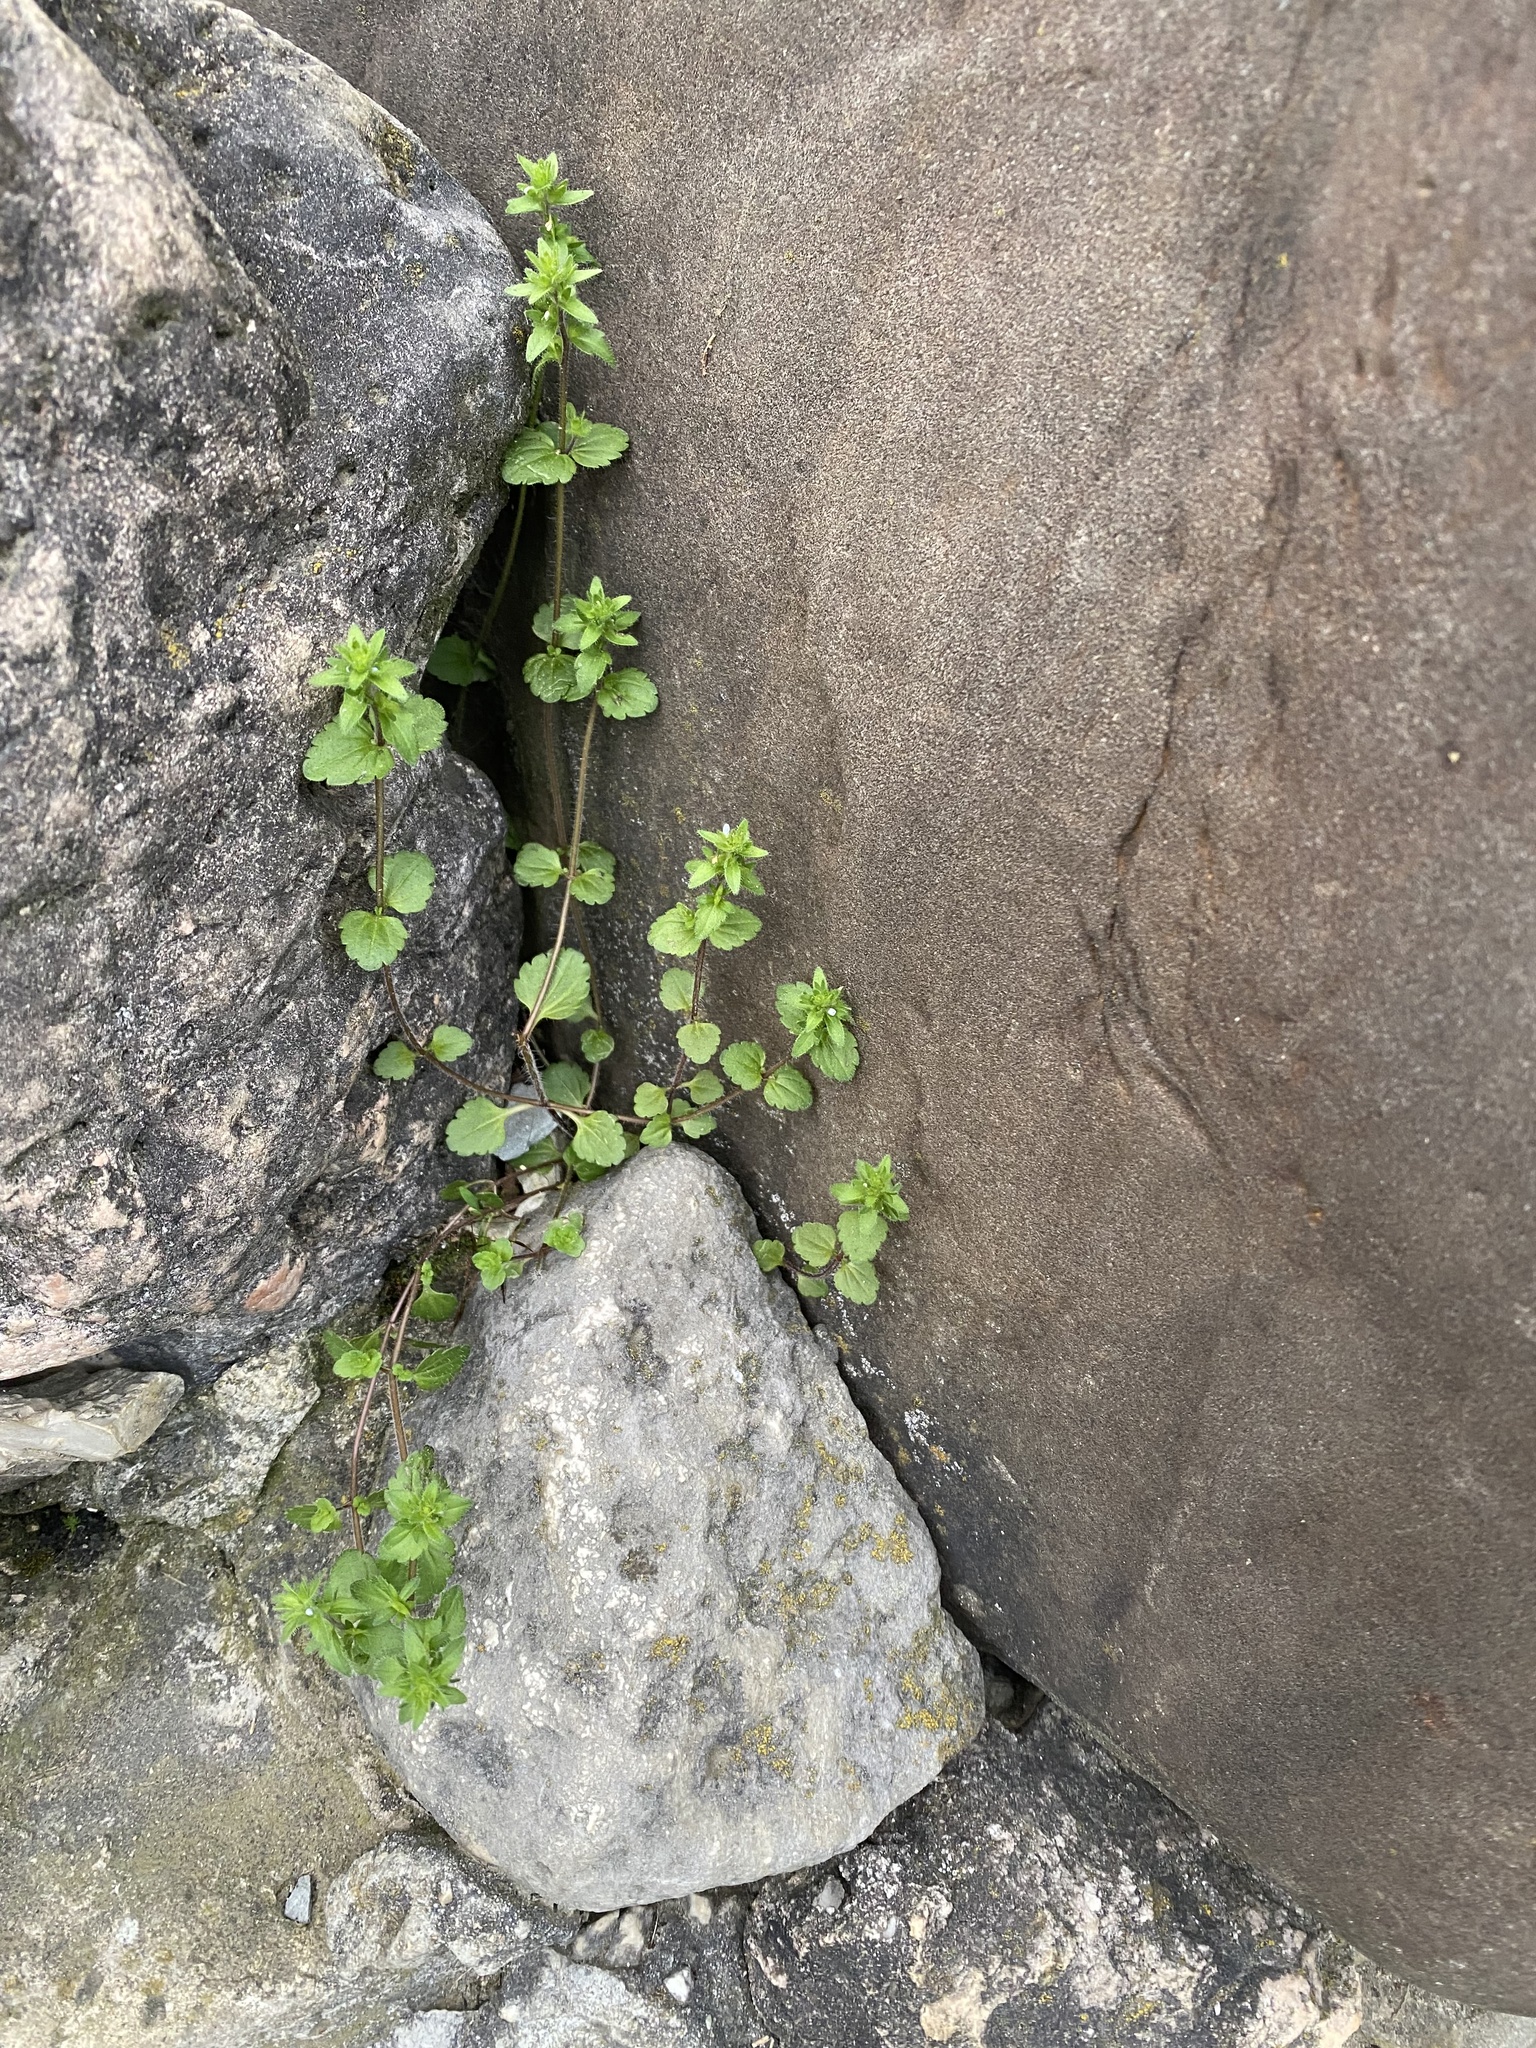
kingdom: Plantae
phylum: Tracheophyta
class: Magnoliopsida
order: Lamiales
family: Plantaginaceae
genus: Veronica
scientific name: Veronica arvensis
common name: Corn speedwell
